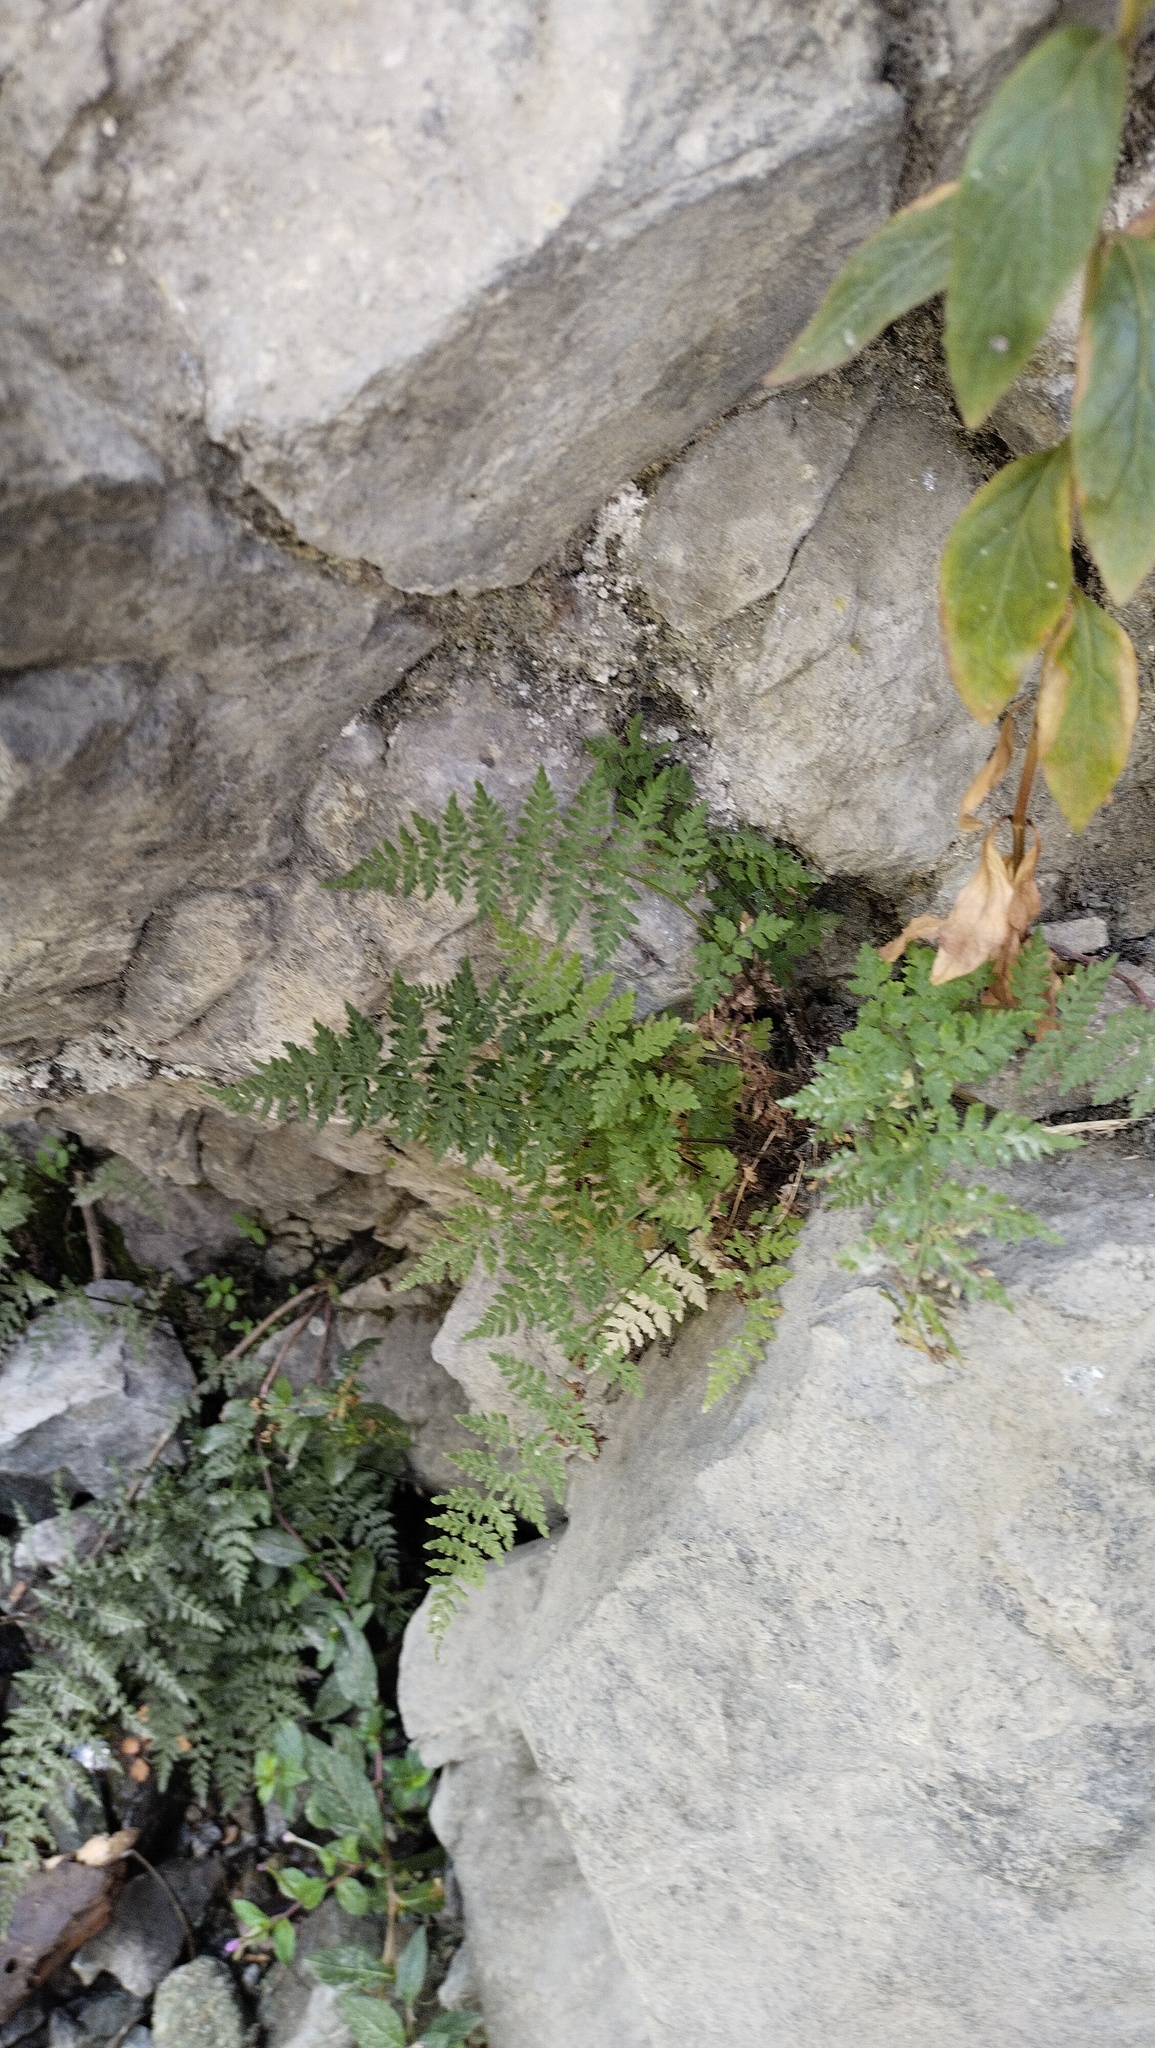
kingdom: Plantae
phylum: Tracheophyta
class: Polypodiopsida
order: Polypodiales
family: Cystopteridaceae
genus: Cystopteris
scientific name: Cystopteris fragilis
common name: Brittle bladder fern
